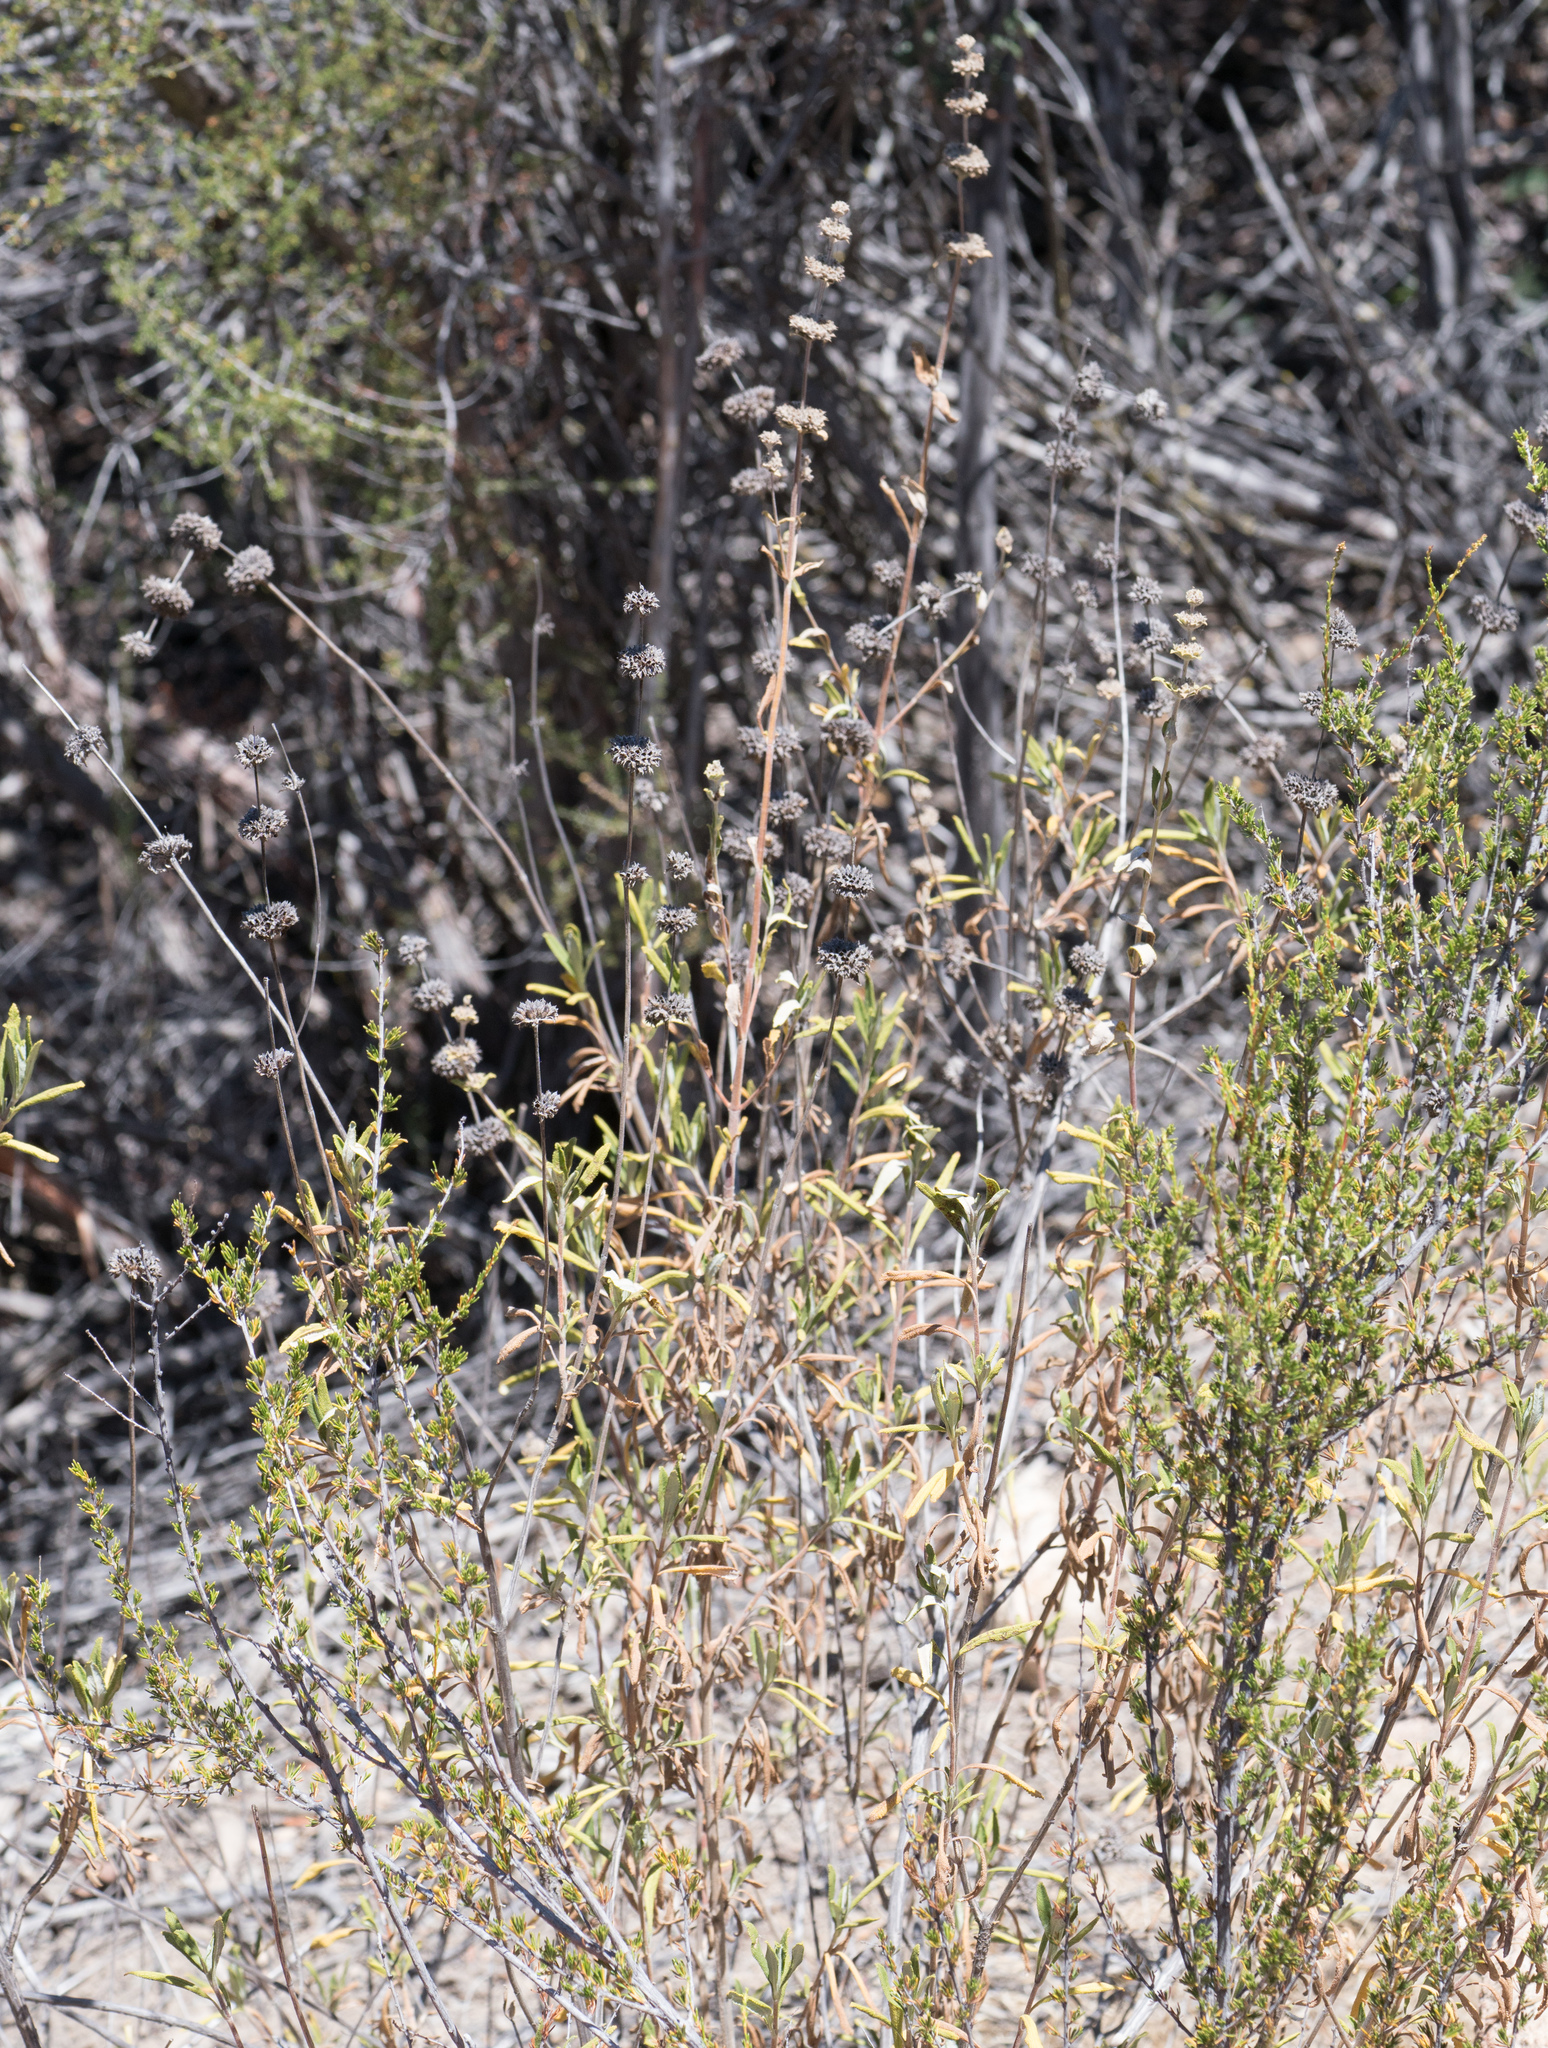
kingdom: Plantae
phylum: Tracheophyta
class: Magnoliopsida
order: Lamiales
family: Lamiaceae
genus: Salvia
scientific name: Salvia mellifera
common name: Black sage
